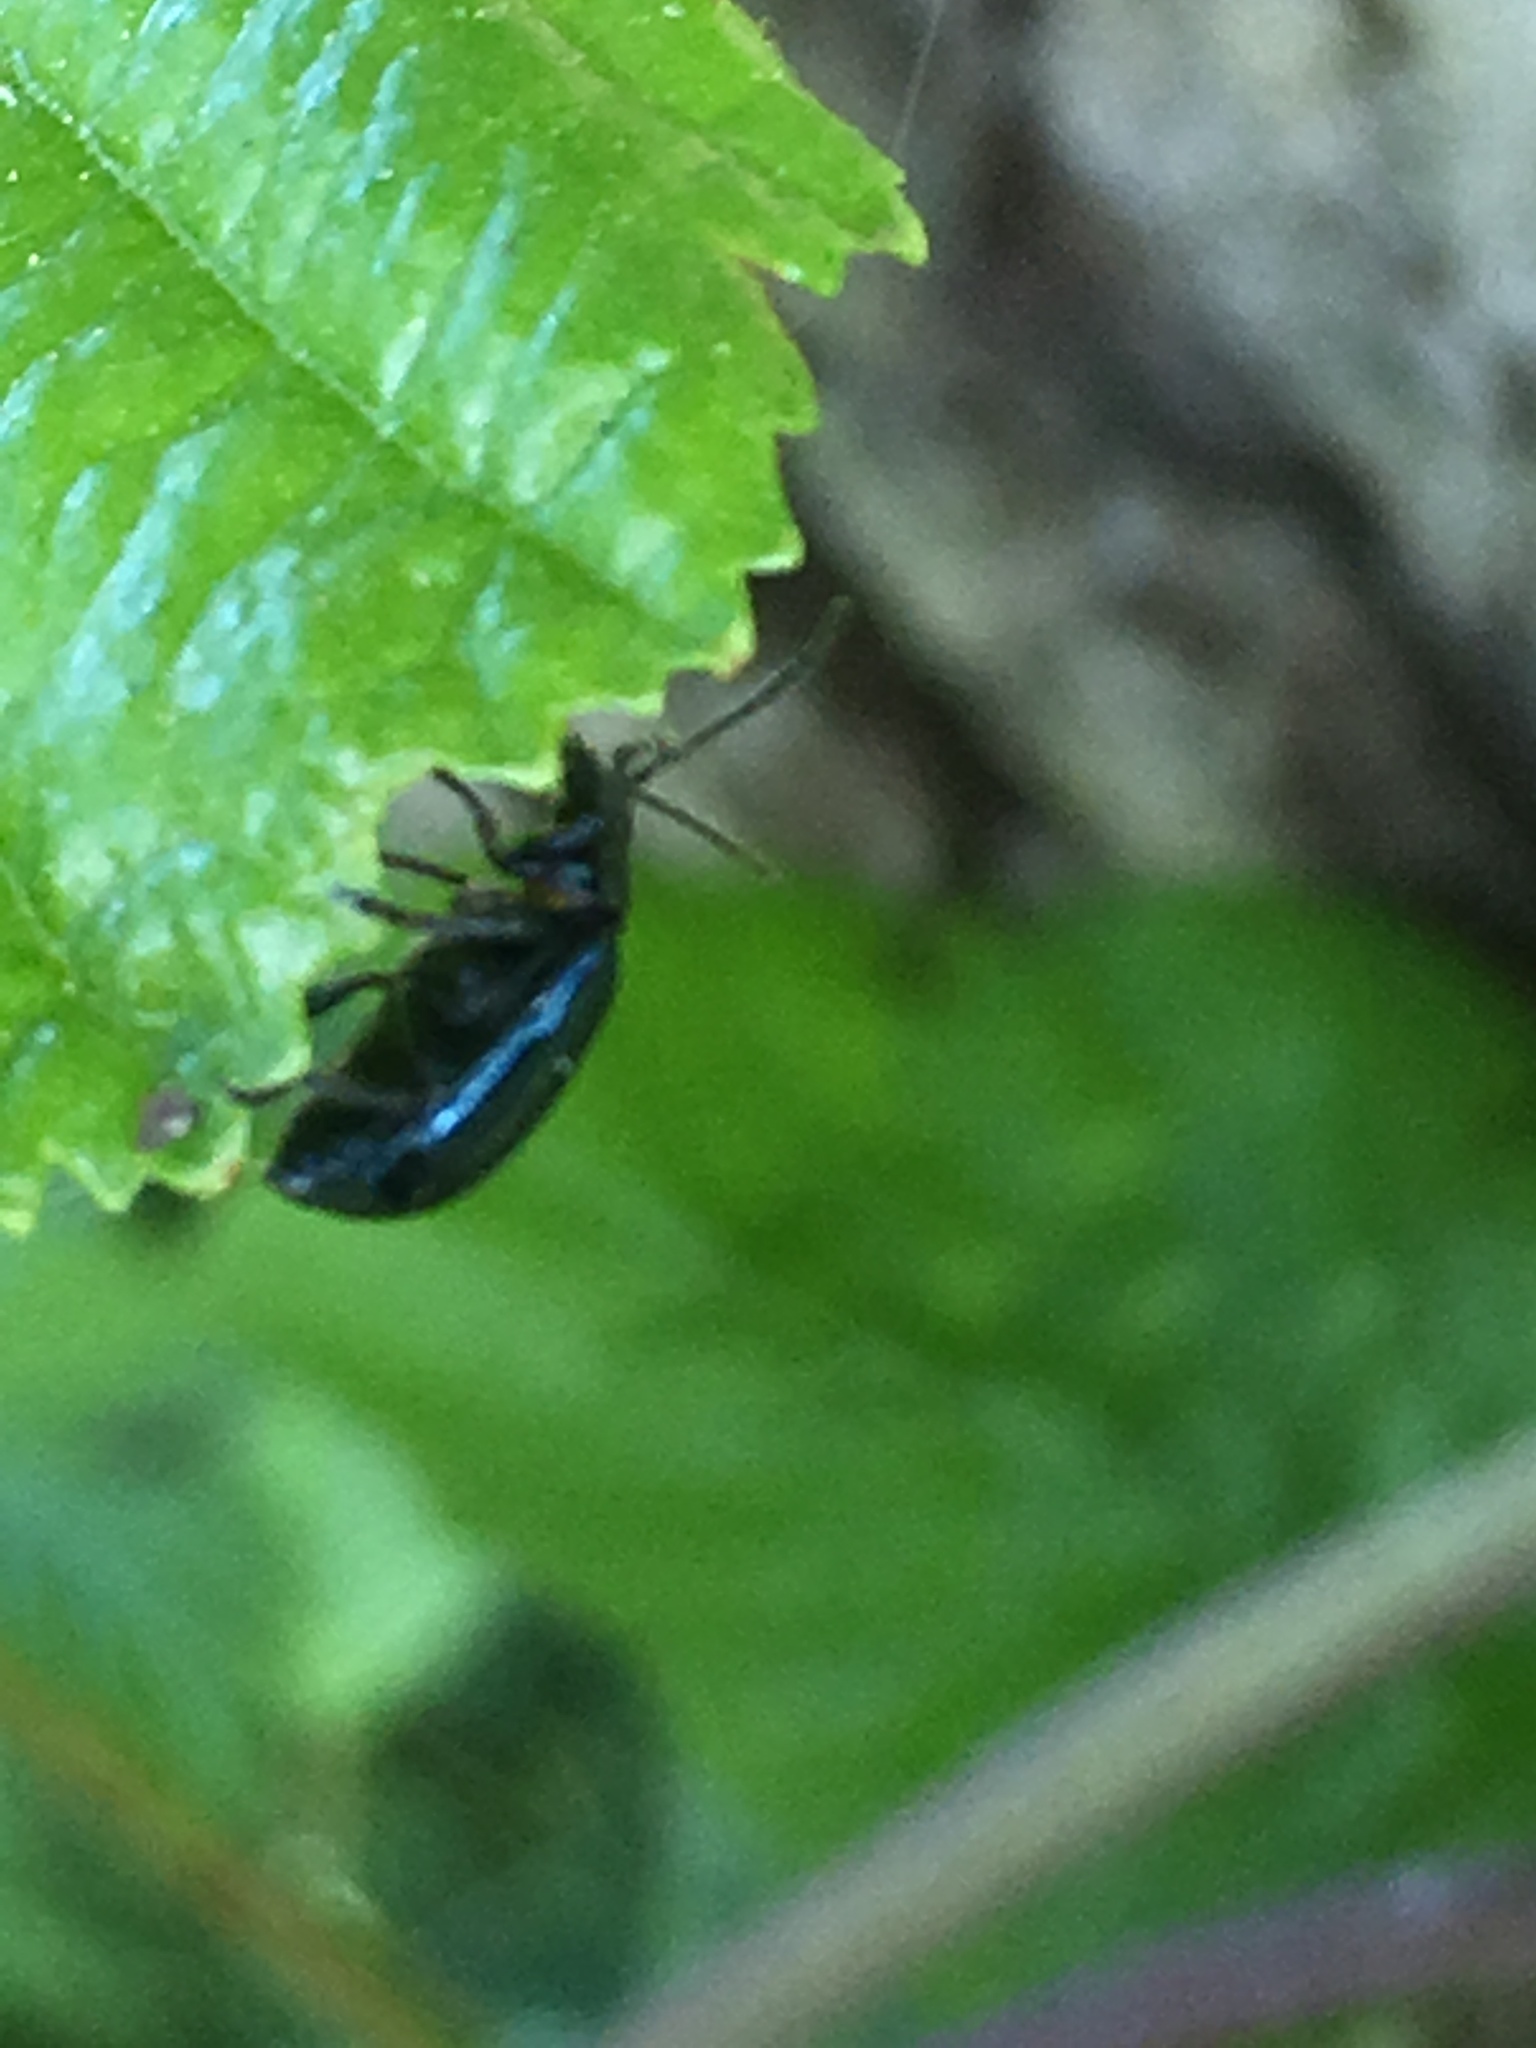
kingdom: Animalia
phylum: Arthropoda
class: Insecta
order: Coleoptera
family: Chrysomelidae
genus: Agelastica
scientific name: Agelastica alni
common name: Alder leaf beetle
